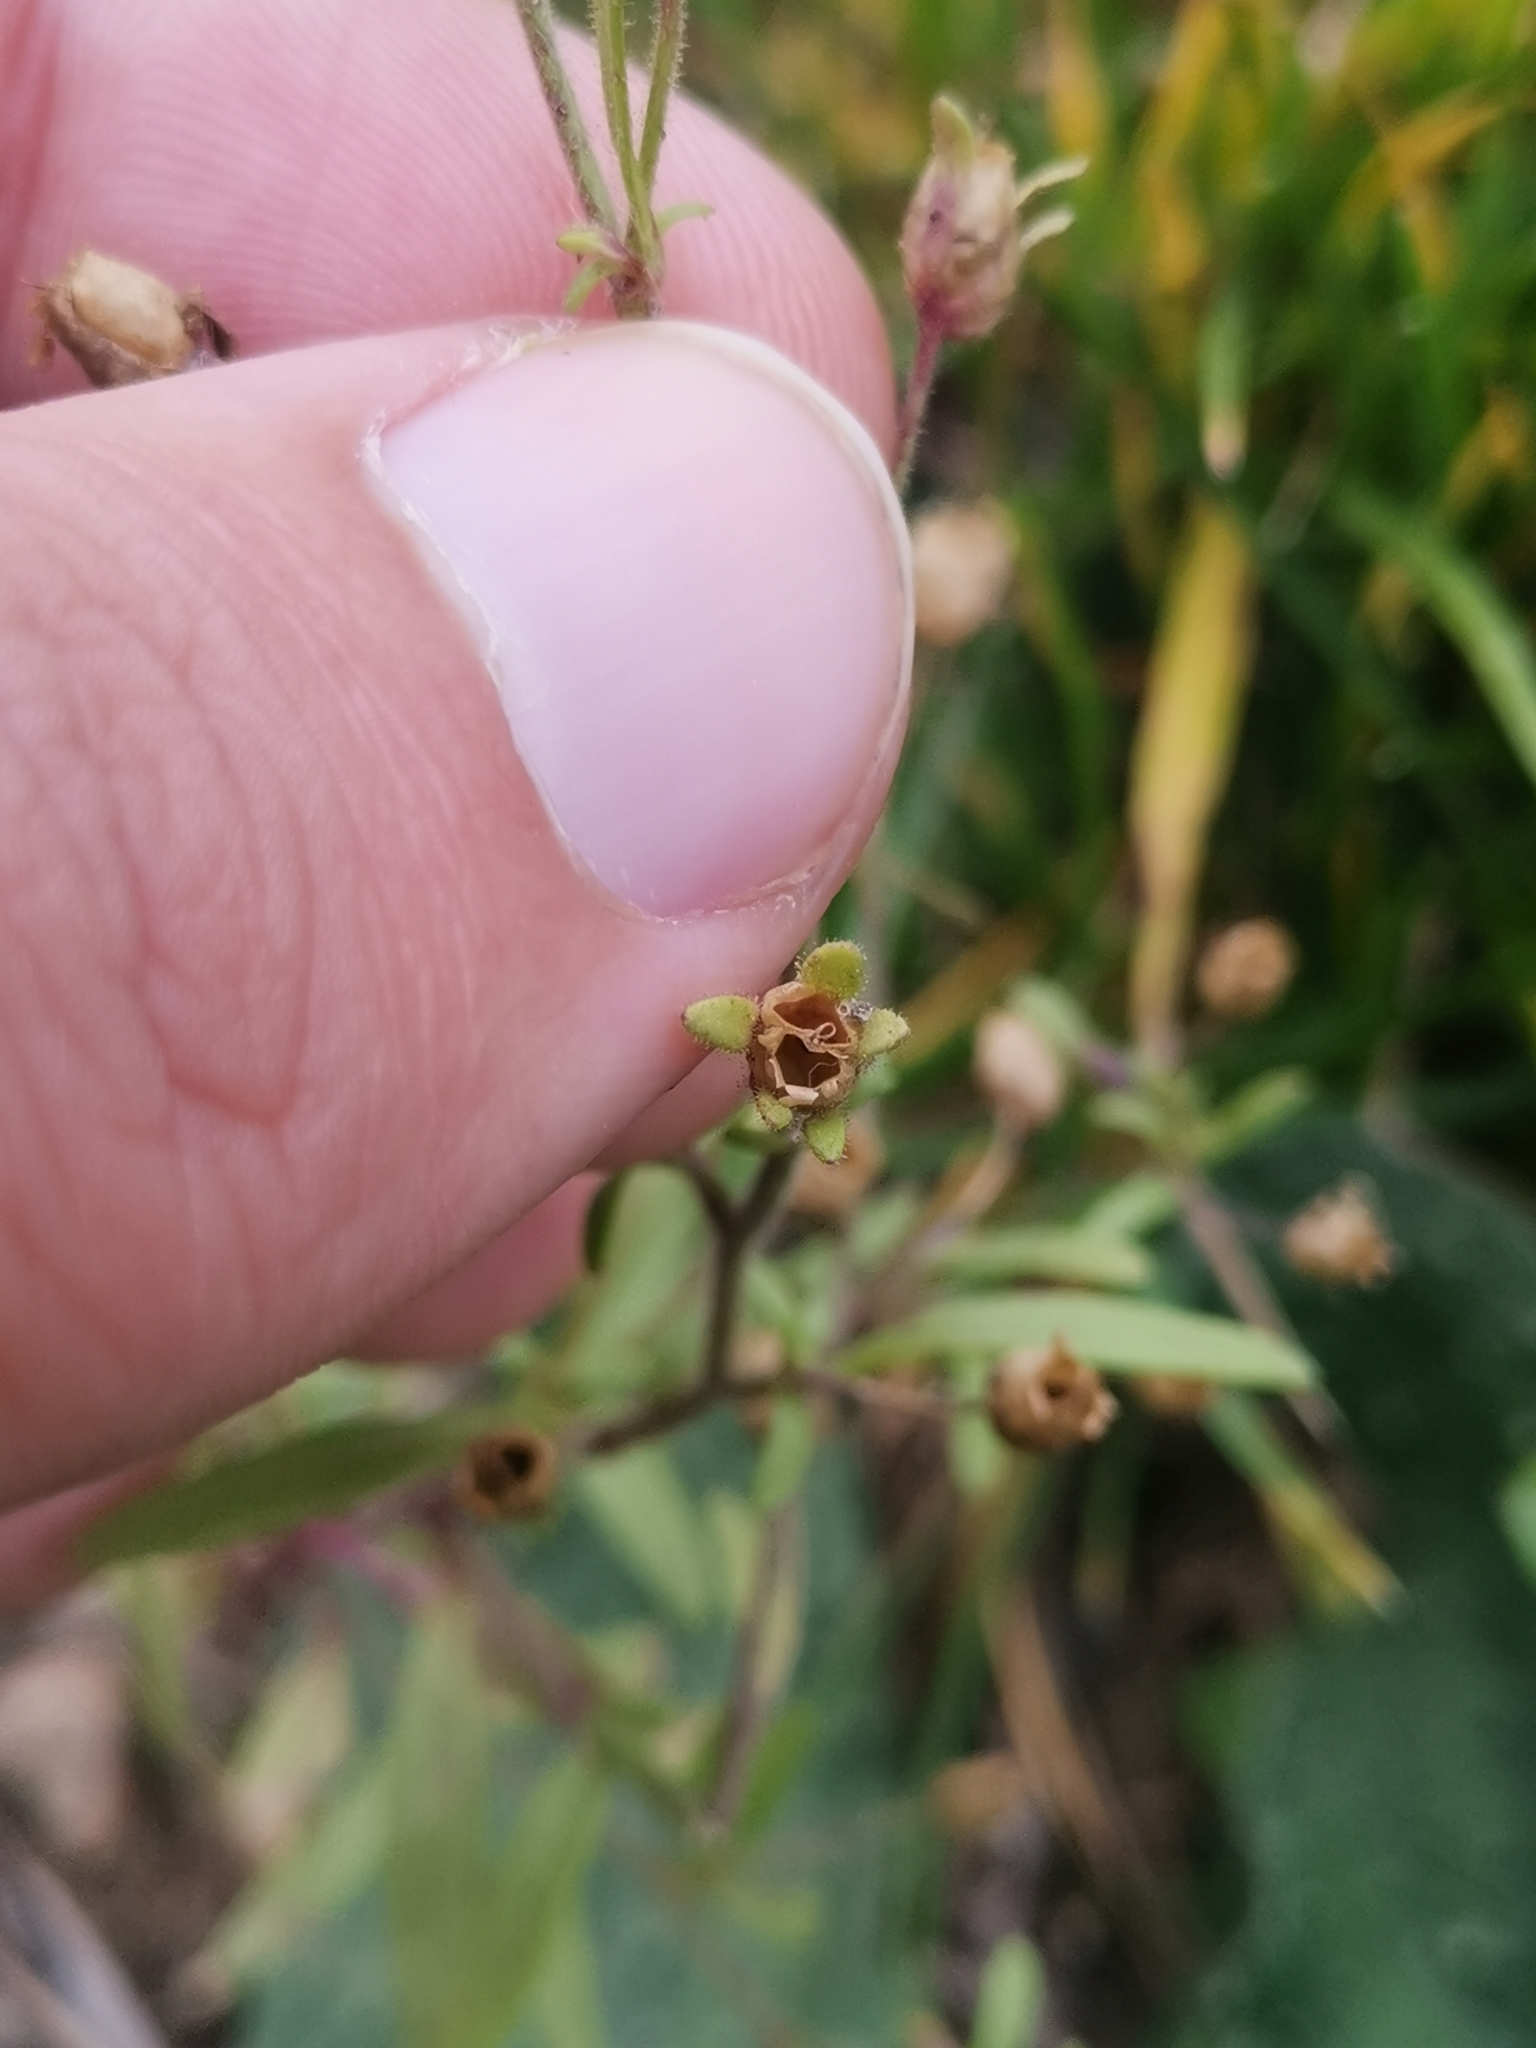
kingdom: Plantae
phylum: Tracheophyta
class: Magnoliopsida
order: Lamiales
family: Plantaginaceae
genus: Chaenorhinum
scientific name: Chaenorhinum minus
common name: Dwarf snapdragon
